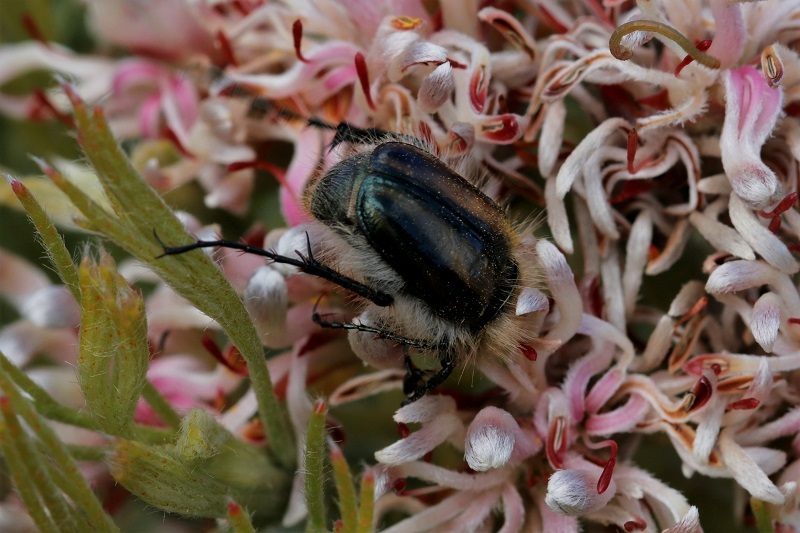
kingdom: Animalia
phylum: Arthropoda
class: Insecta
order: Coleoptera
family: Scarabaeidae
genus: Stegopterus
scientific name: Stegopterus vittatus
